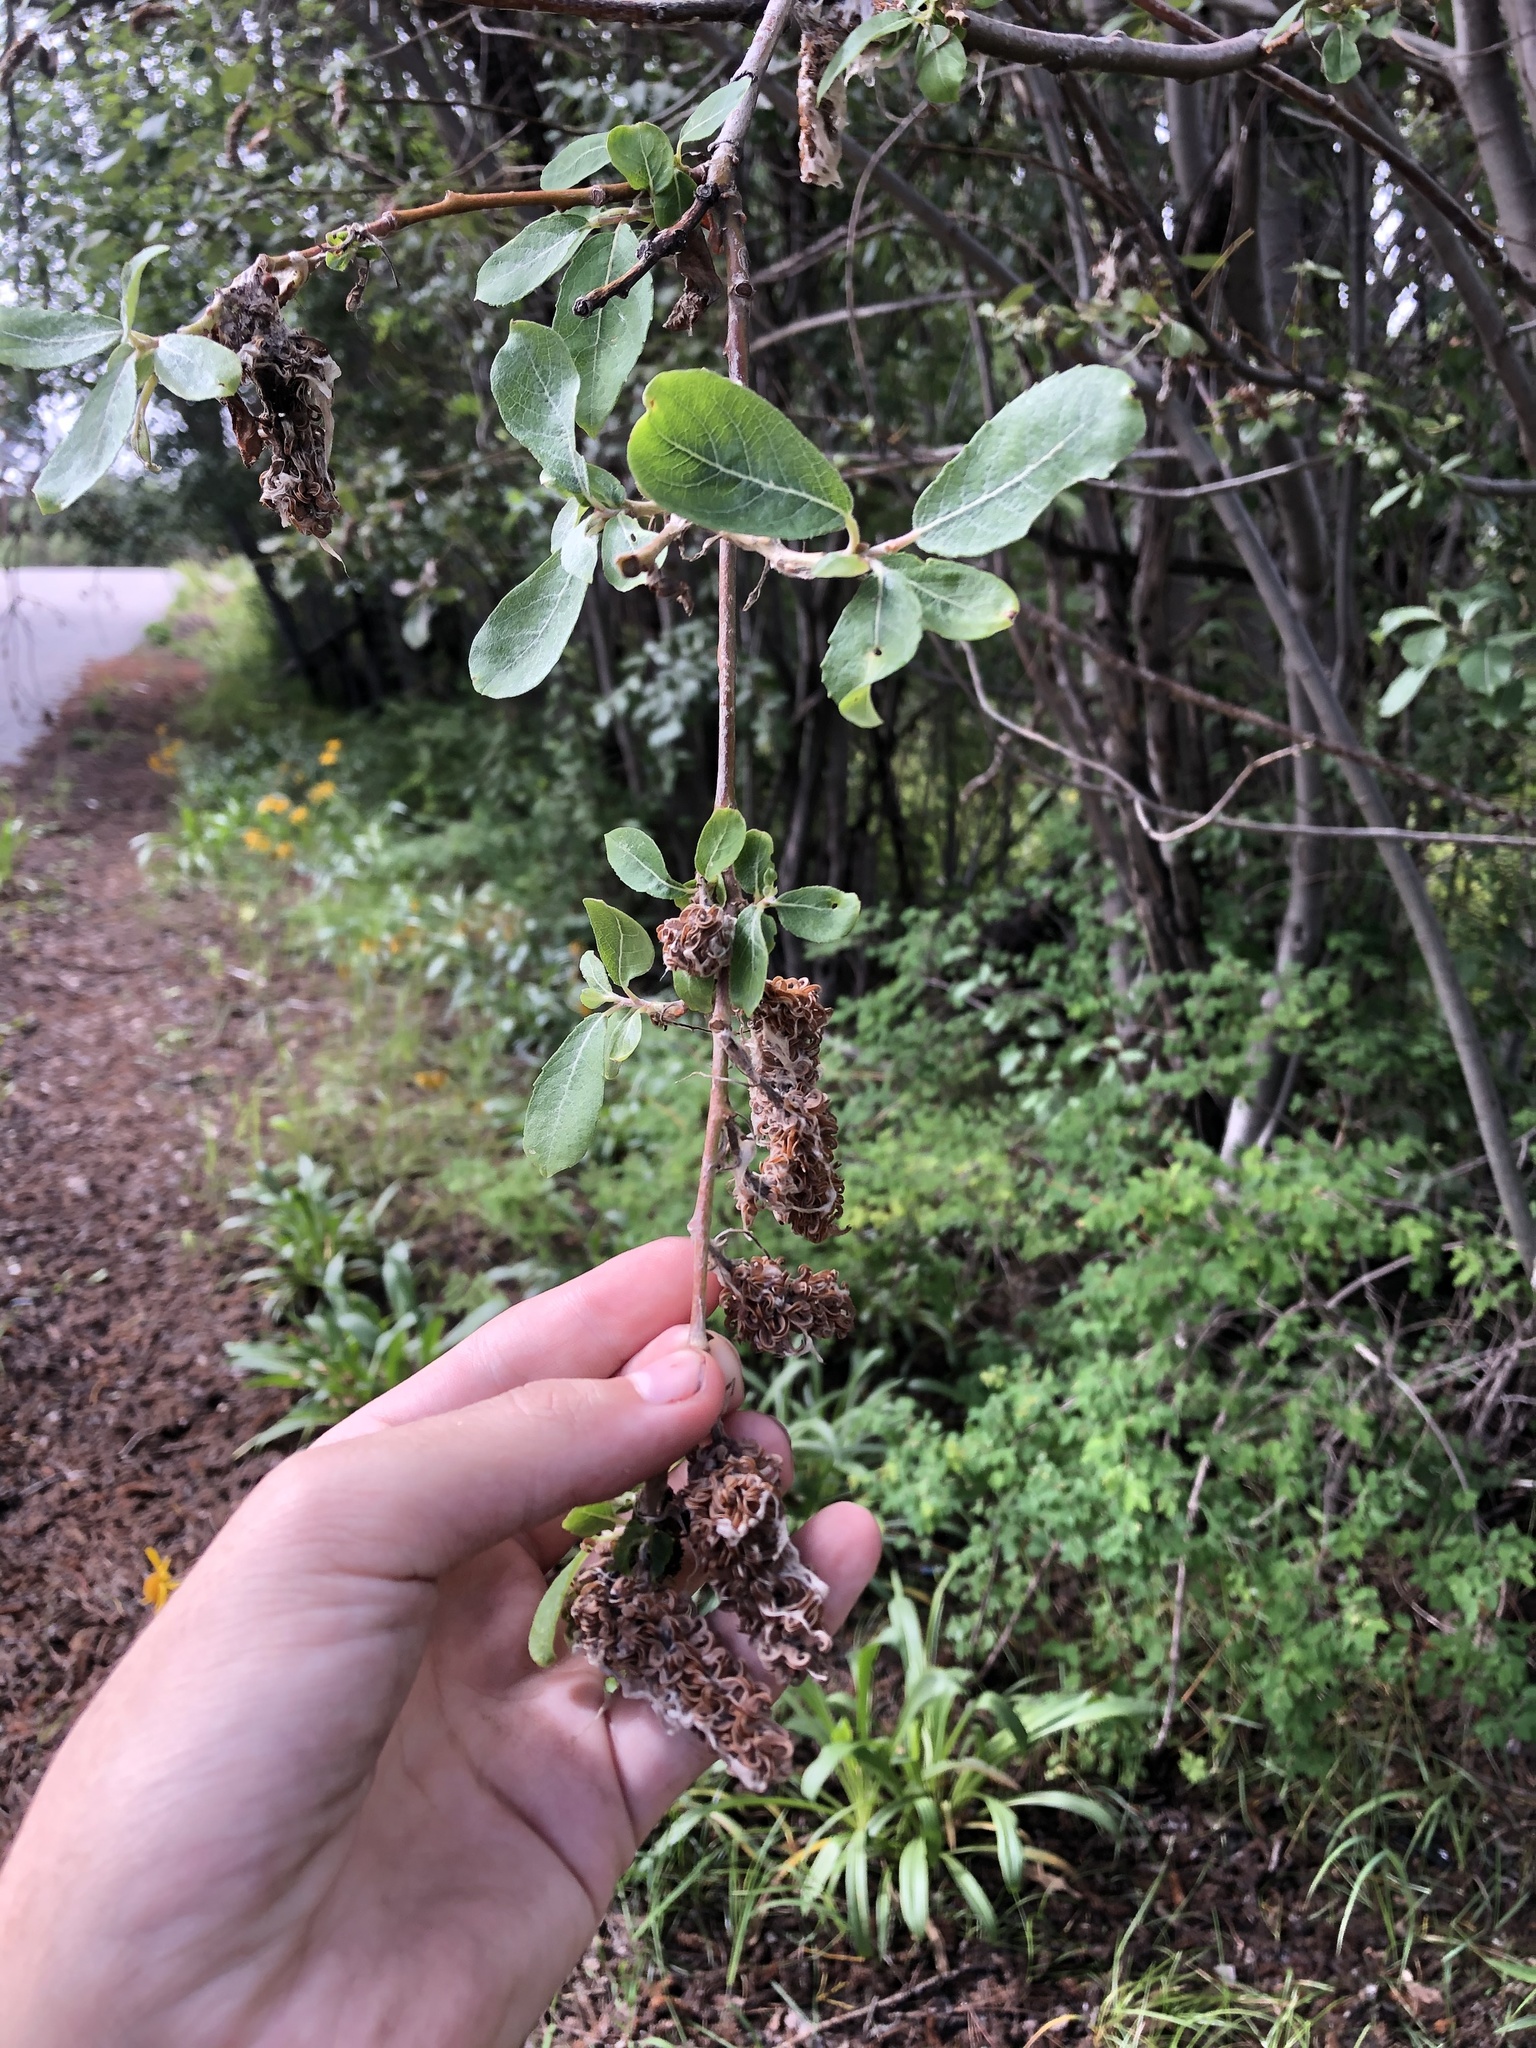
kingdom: Plantae
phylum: Tracheophyta
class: Magnoliopsida
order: Malpighiales
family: Salicaceae
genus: Salix
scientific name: Salix scouleriana
